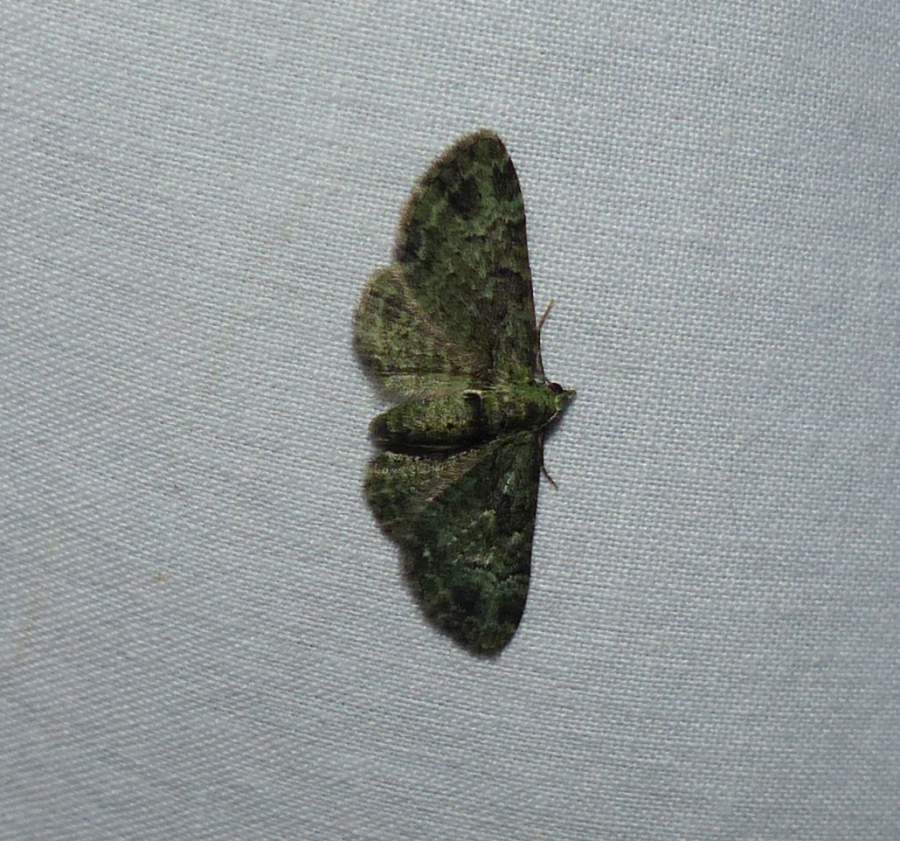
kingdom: Animalia
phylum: Arthropoda
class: Insecta
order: Lepidoptera
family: Geometridae
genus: Pasiphila
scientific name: Pasiphila rectangulata
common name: Green pug
